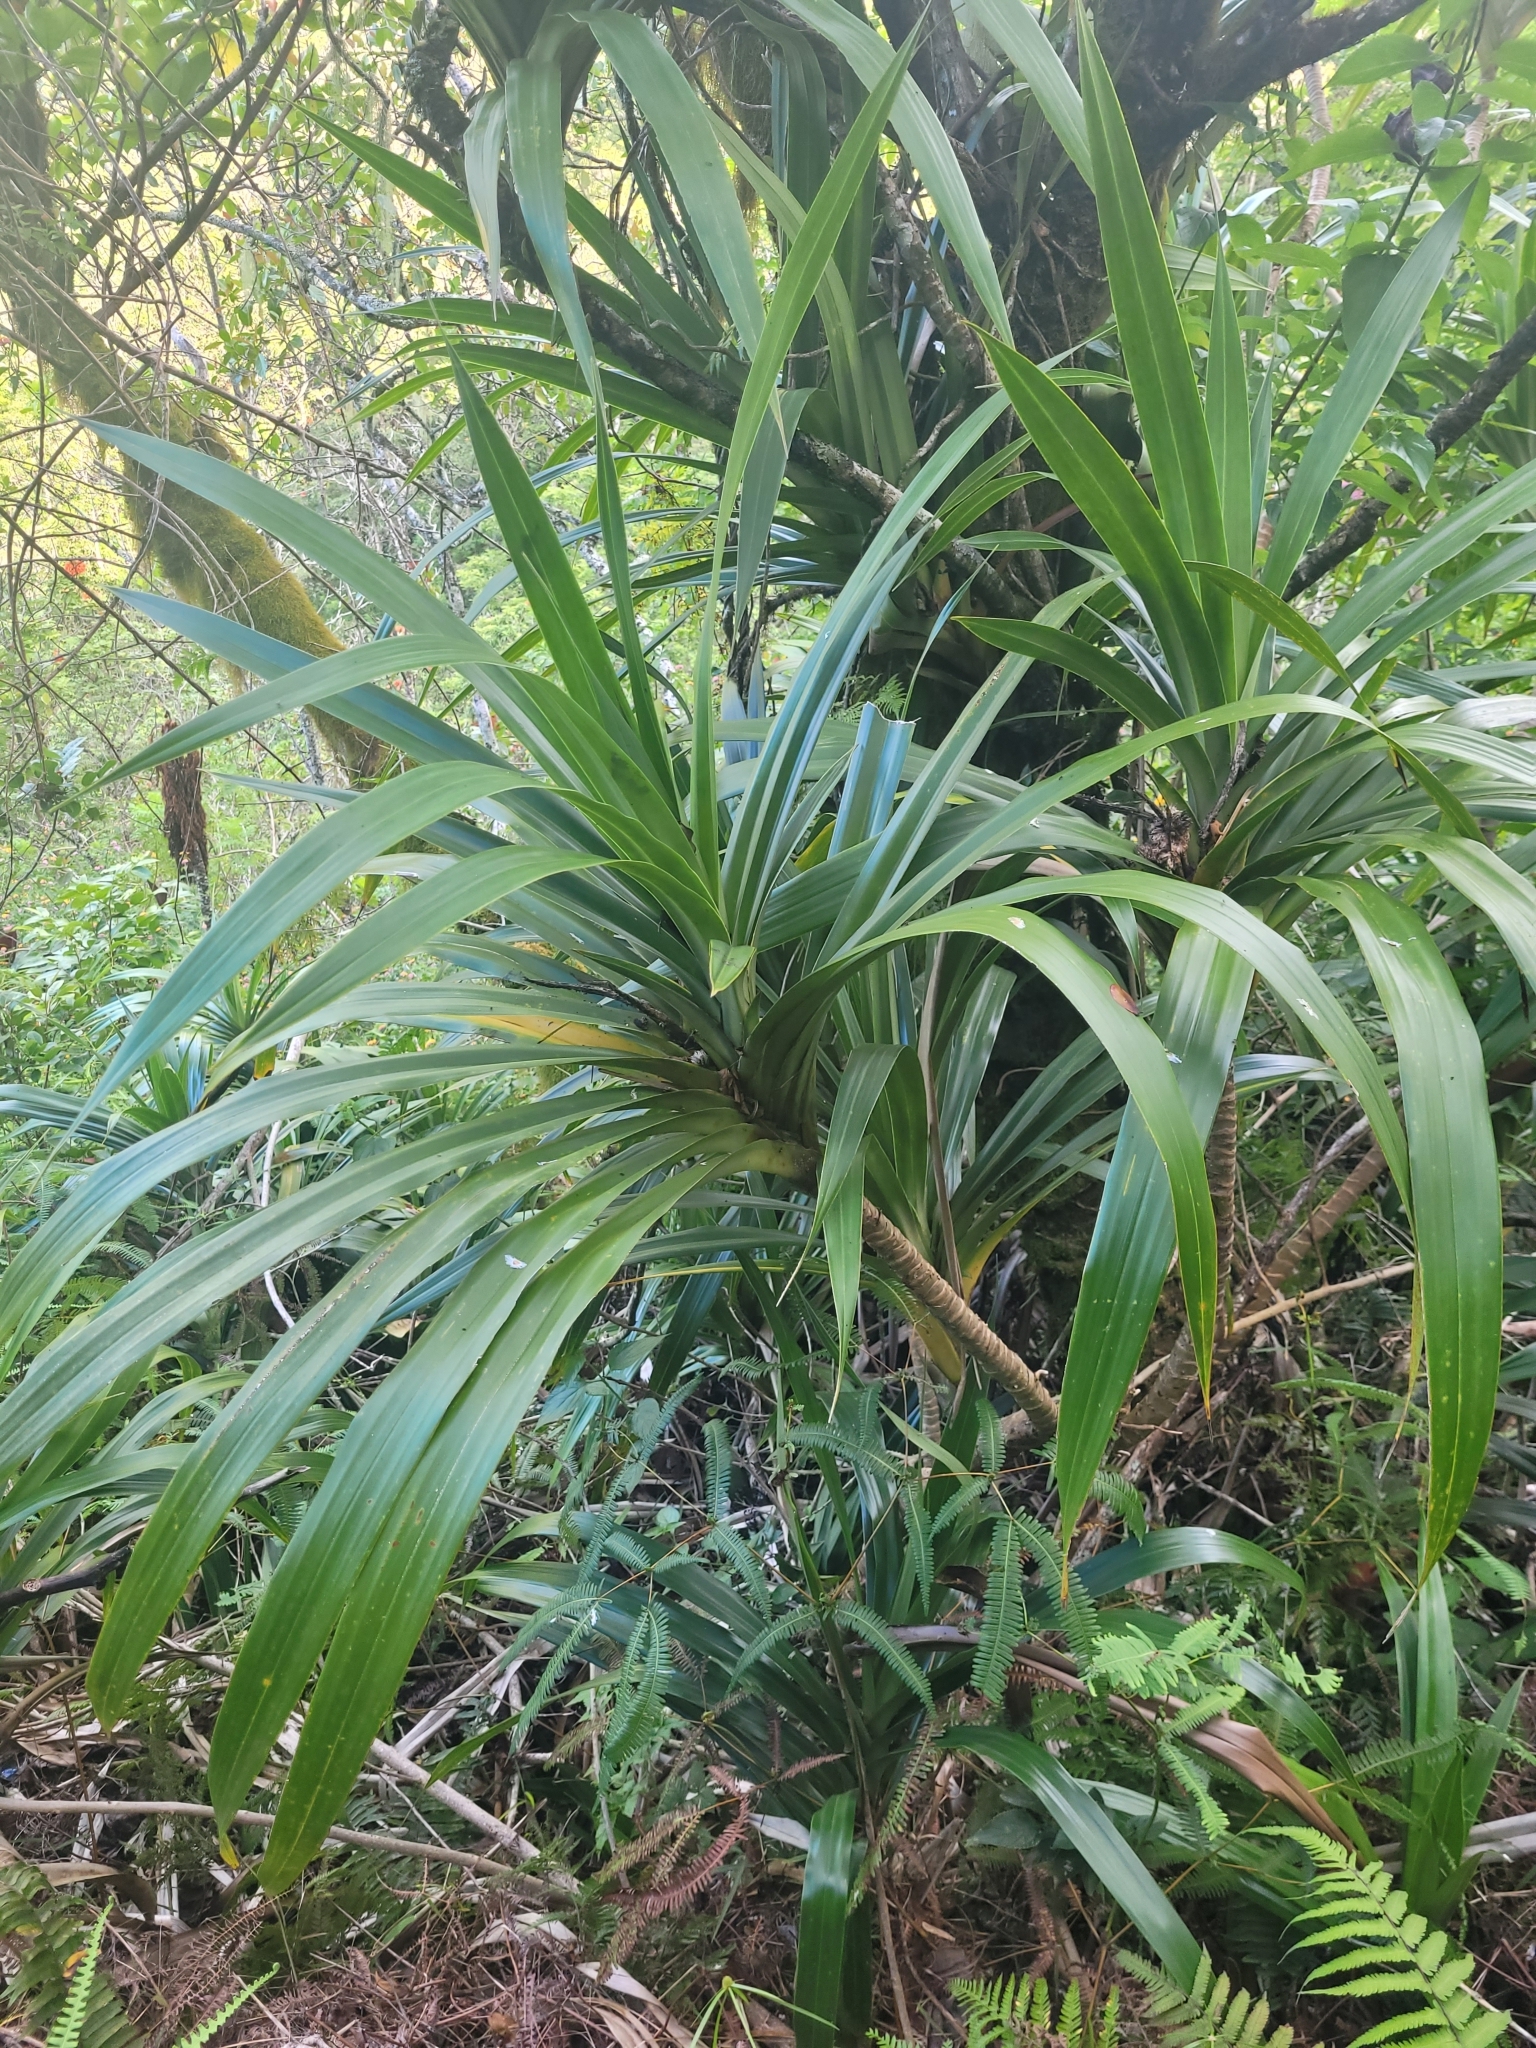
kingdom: Plantae
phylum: Tracheophyta
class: Liliopsida
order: Pandanales
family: Pandanaceae
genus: Freycinetia
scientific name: Freycinetia arborea
